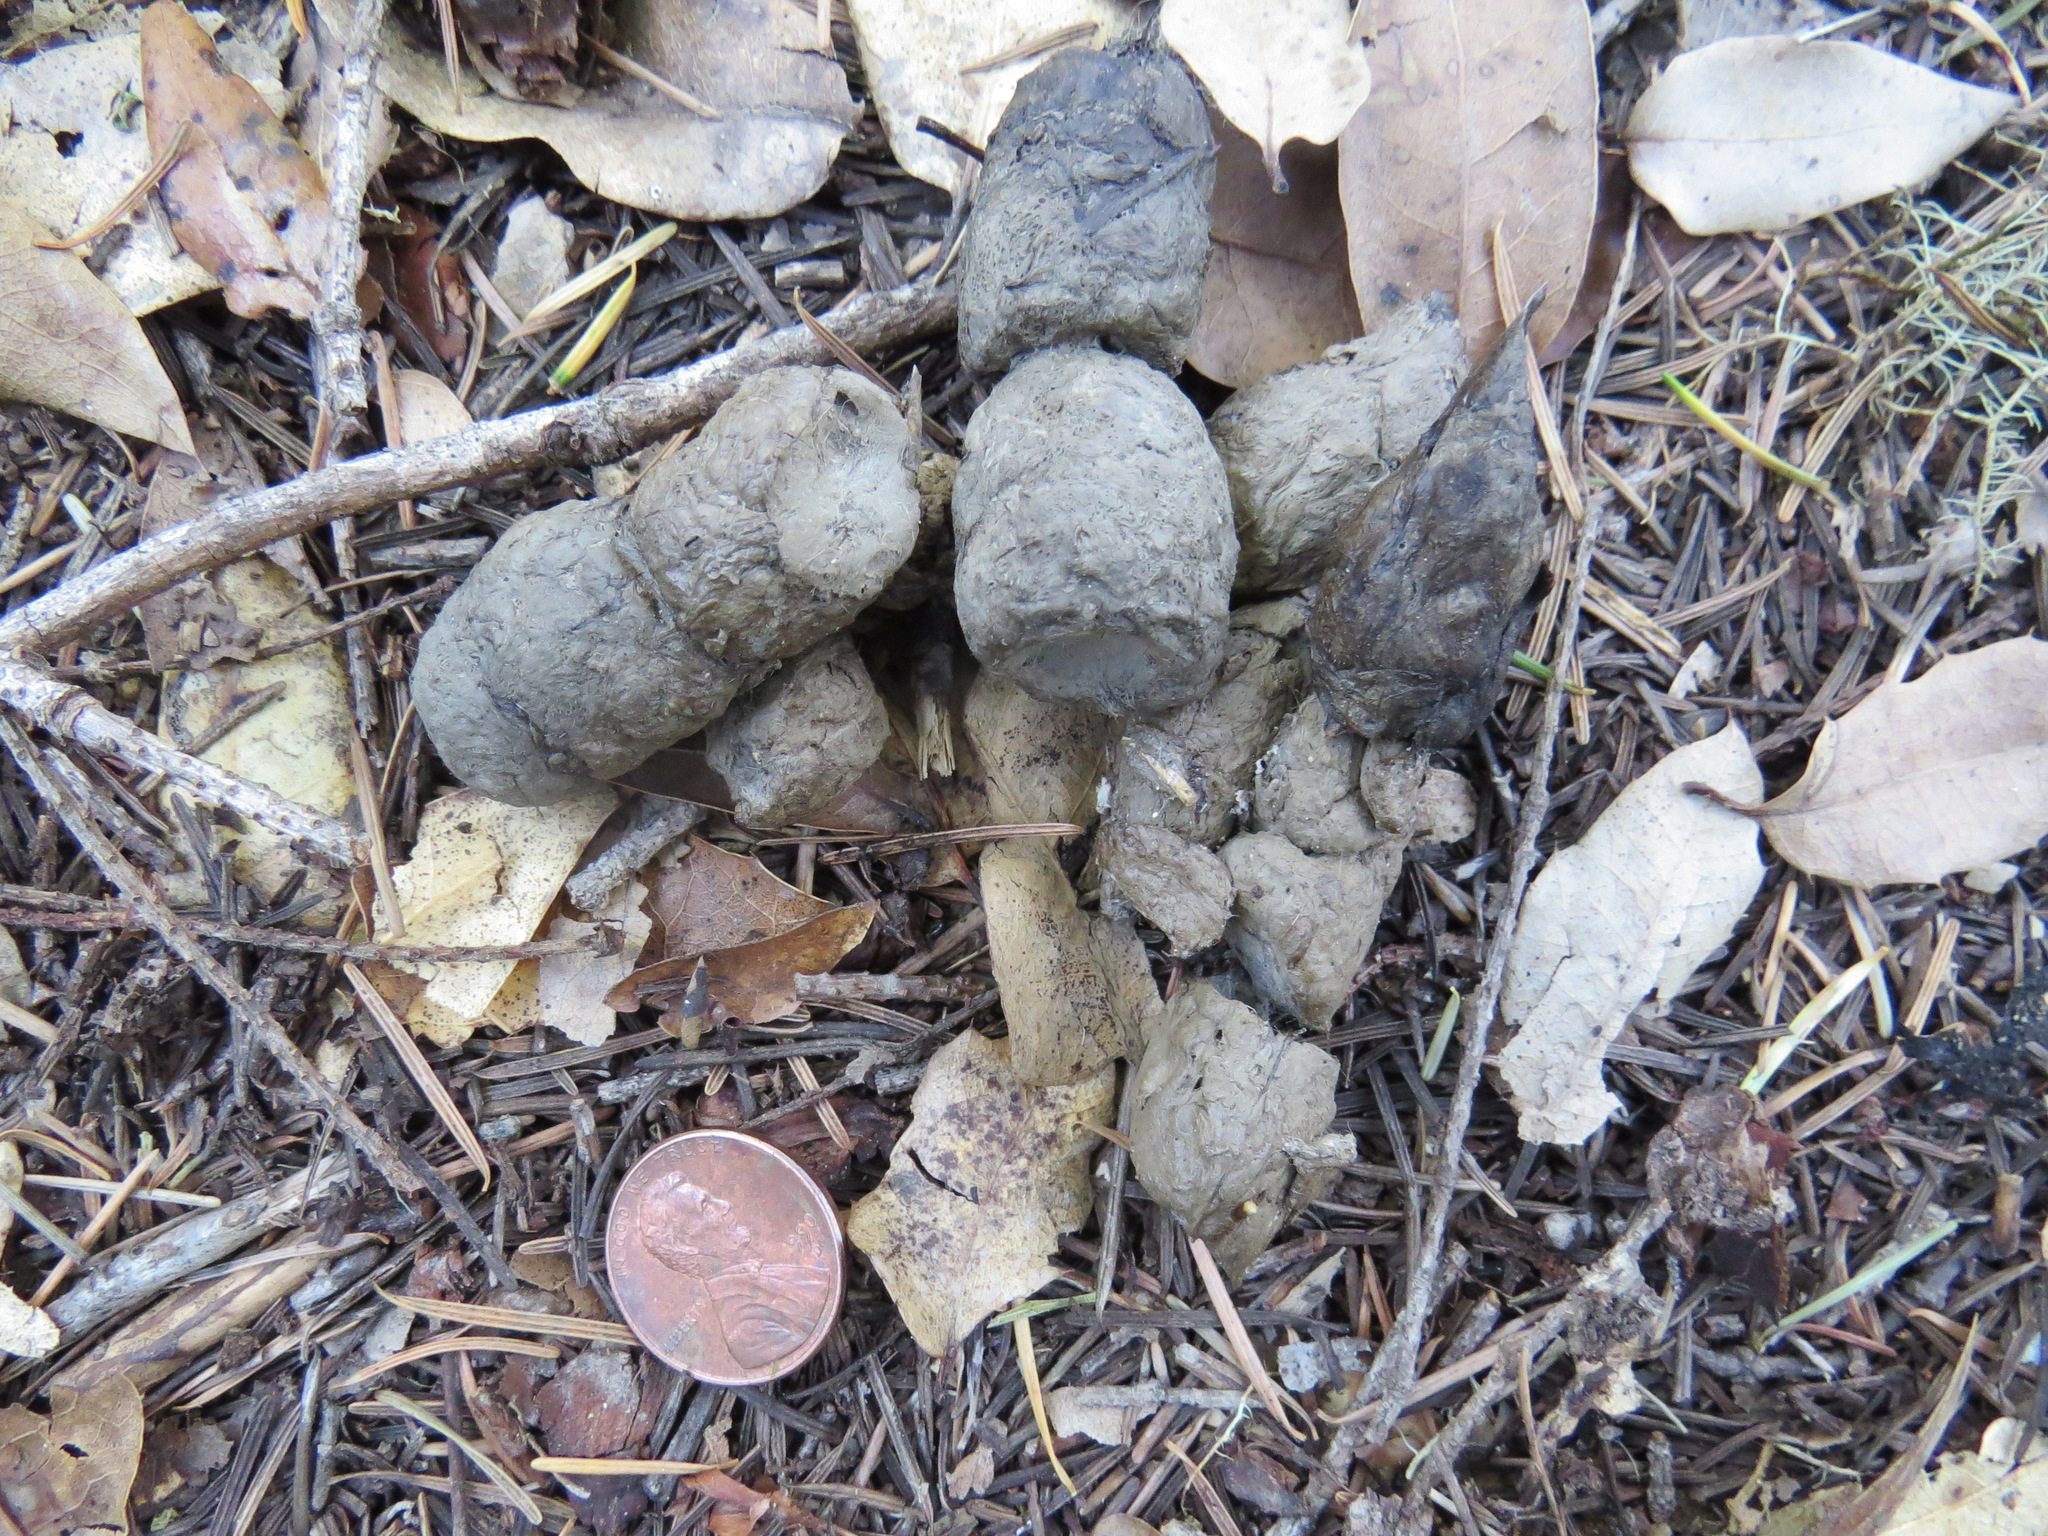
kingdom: Animalia
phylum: Chordata
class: Mammalia
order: Carnivora
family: Felidae
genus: Lynx
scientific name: Lynx rufus
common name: Bobcat
